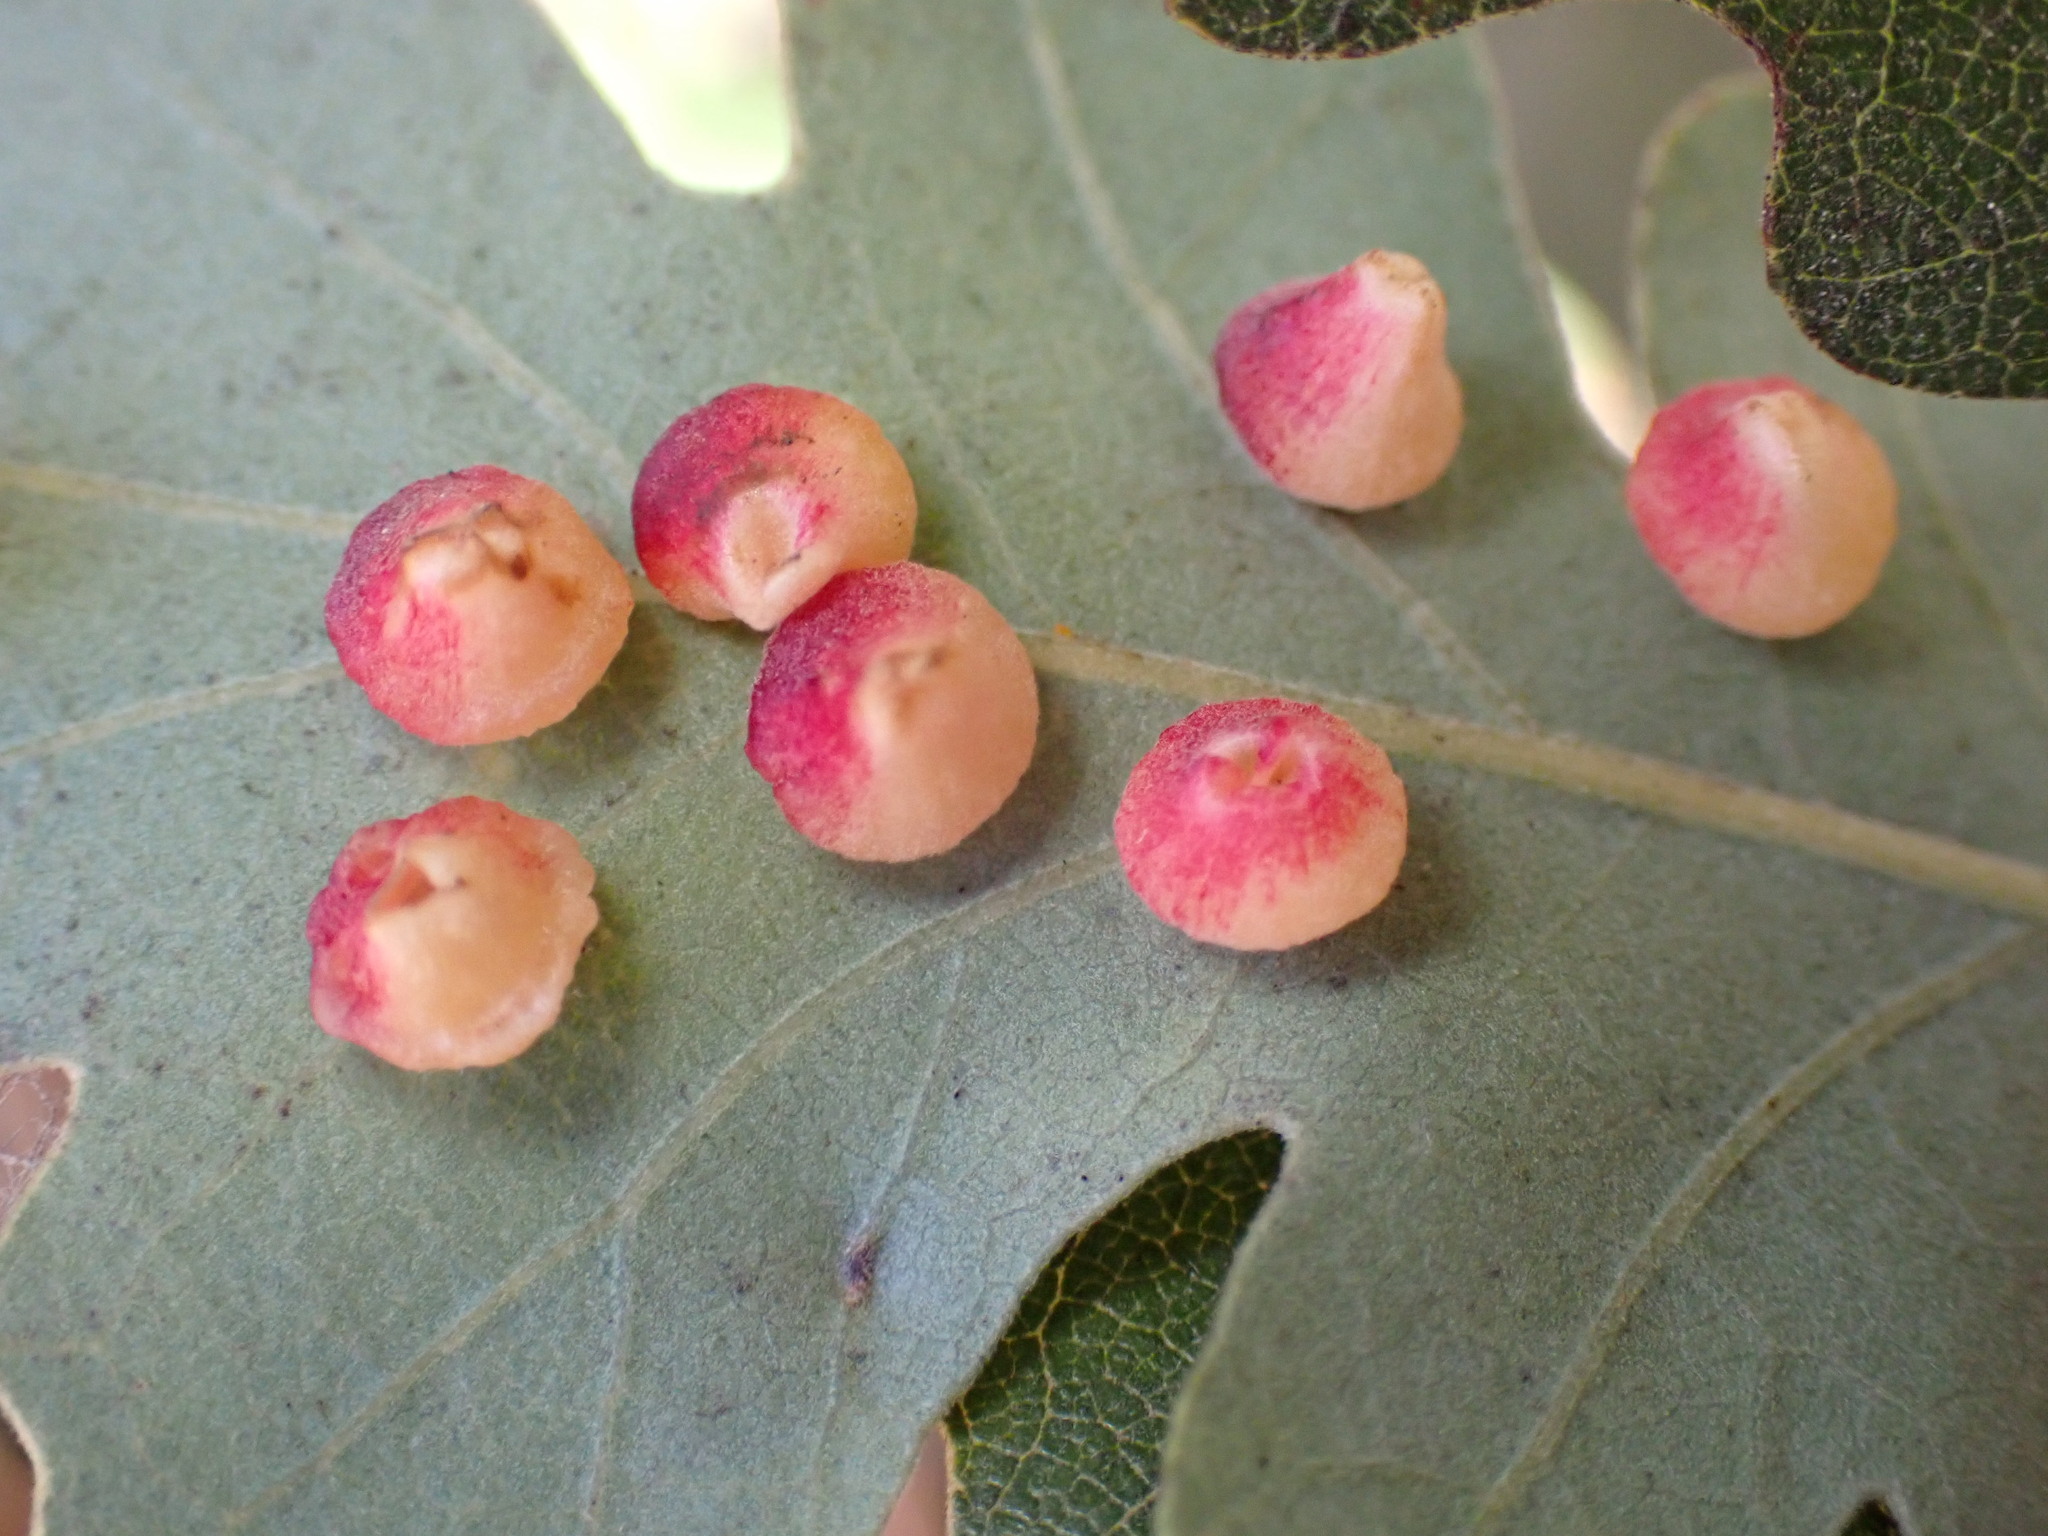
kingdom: Animalia
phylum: Arthropoda
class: Insecta
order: Hymenoptera
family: Cynipidae
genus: Andricus
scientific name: Andricus
